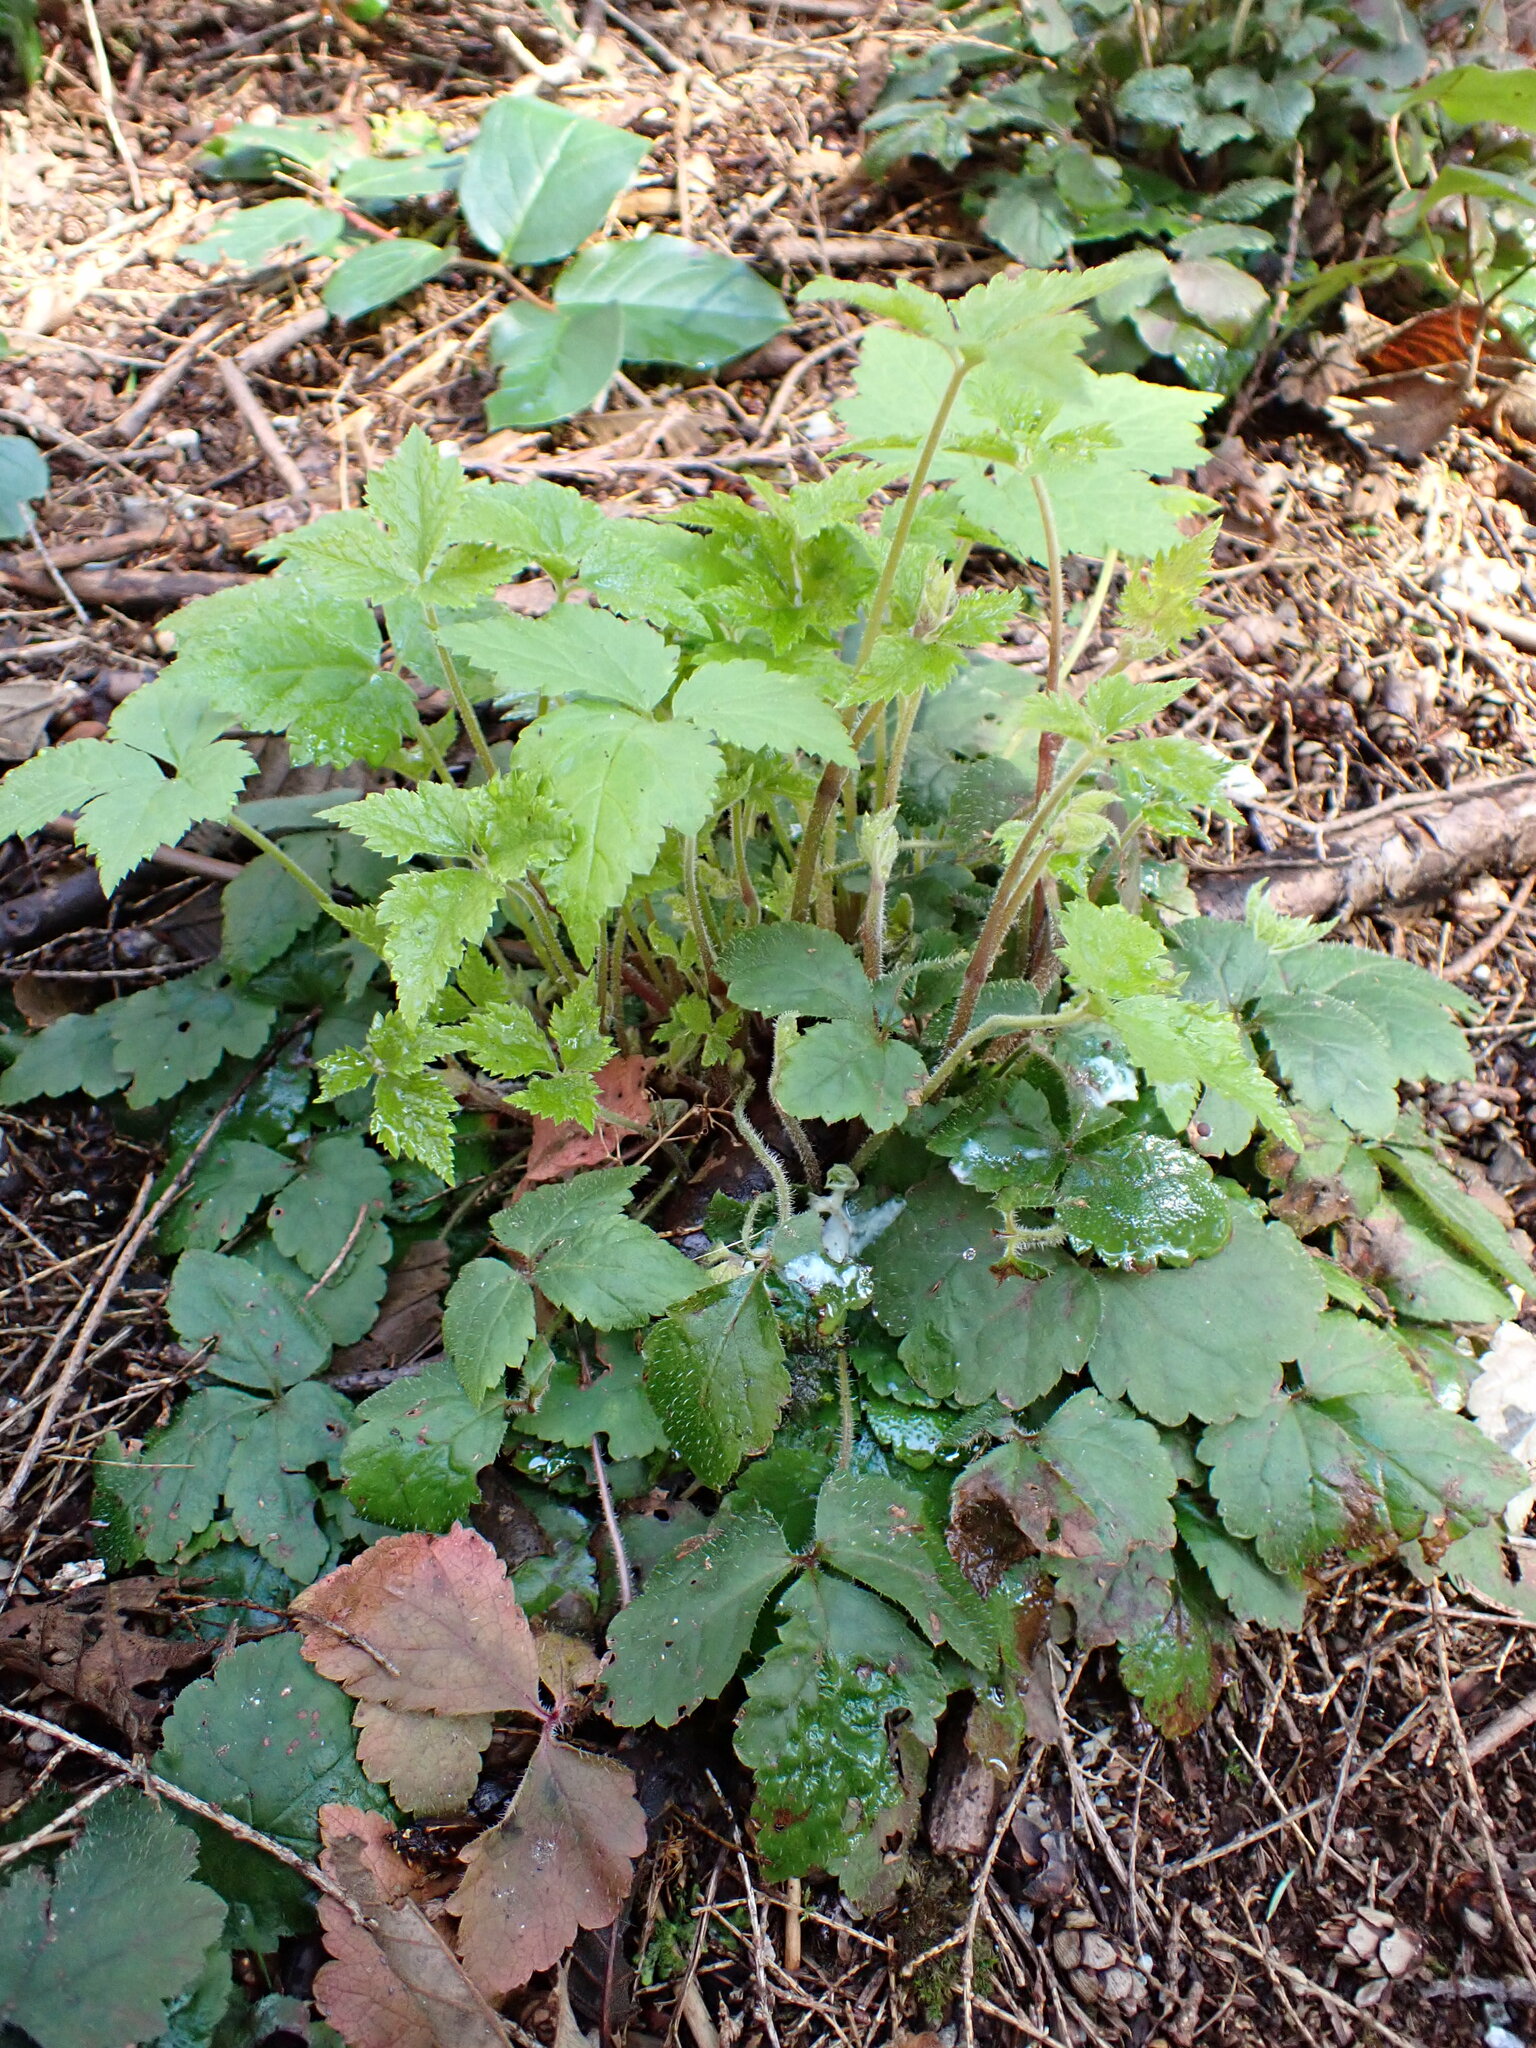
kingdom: Plantae
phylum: Tracheophyta
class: Magnoliopsida
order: Saxifragales
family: Saxifragaceae
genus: Tiarella
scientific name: Tiarella trifoliata
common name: Sugar-scoop
